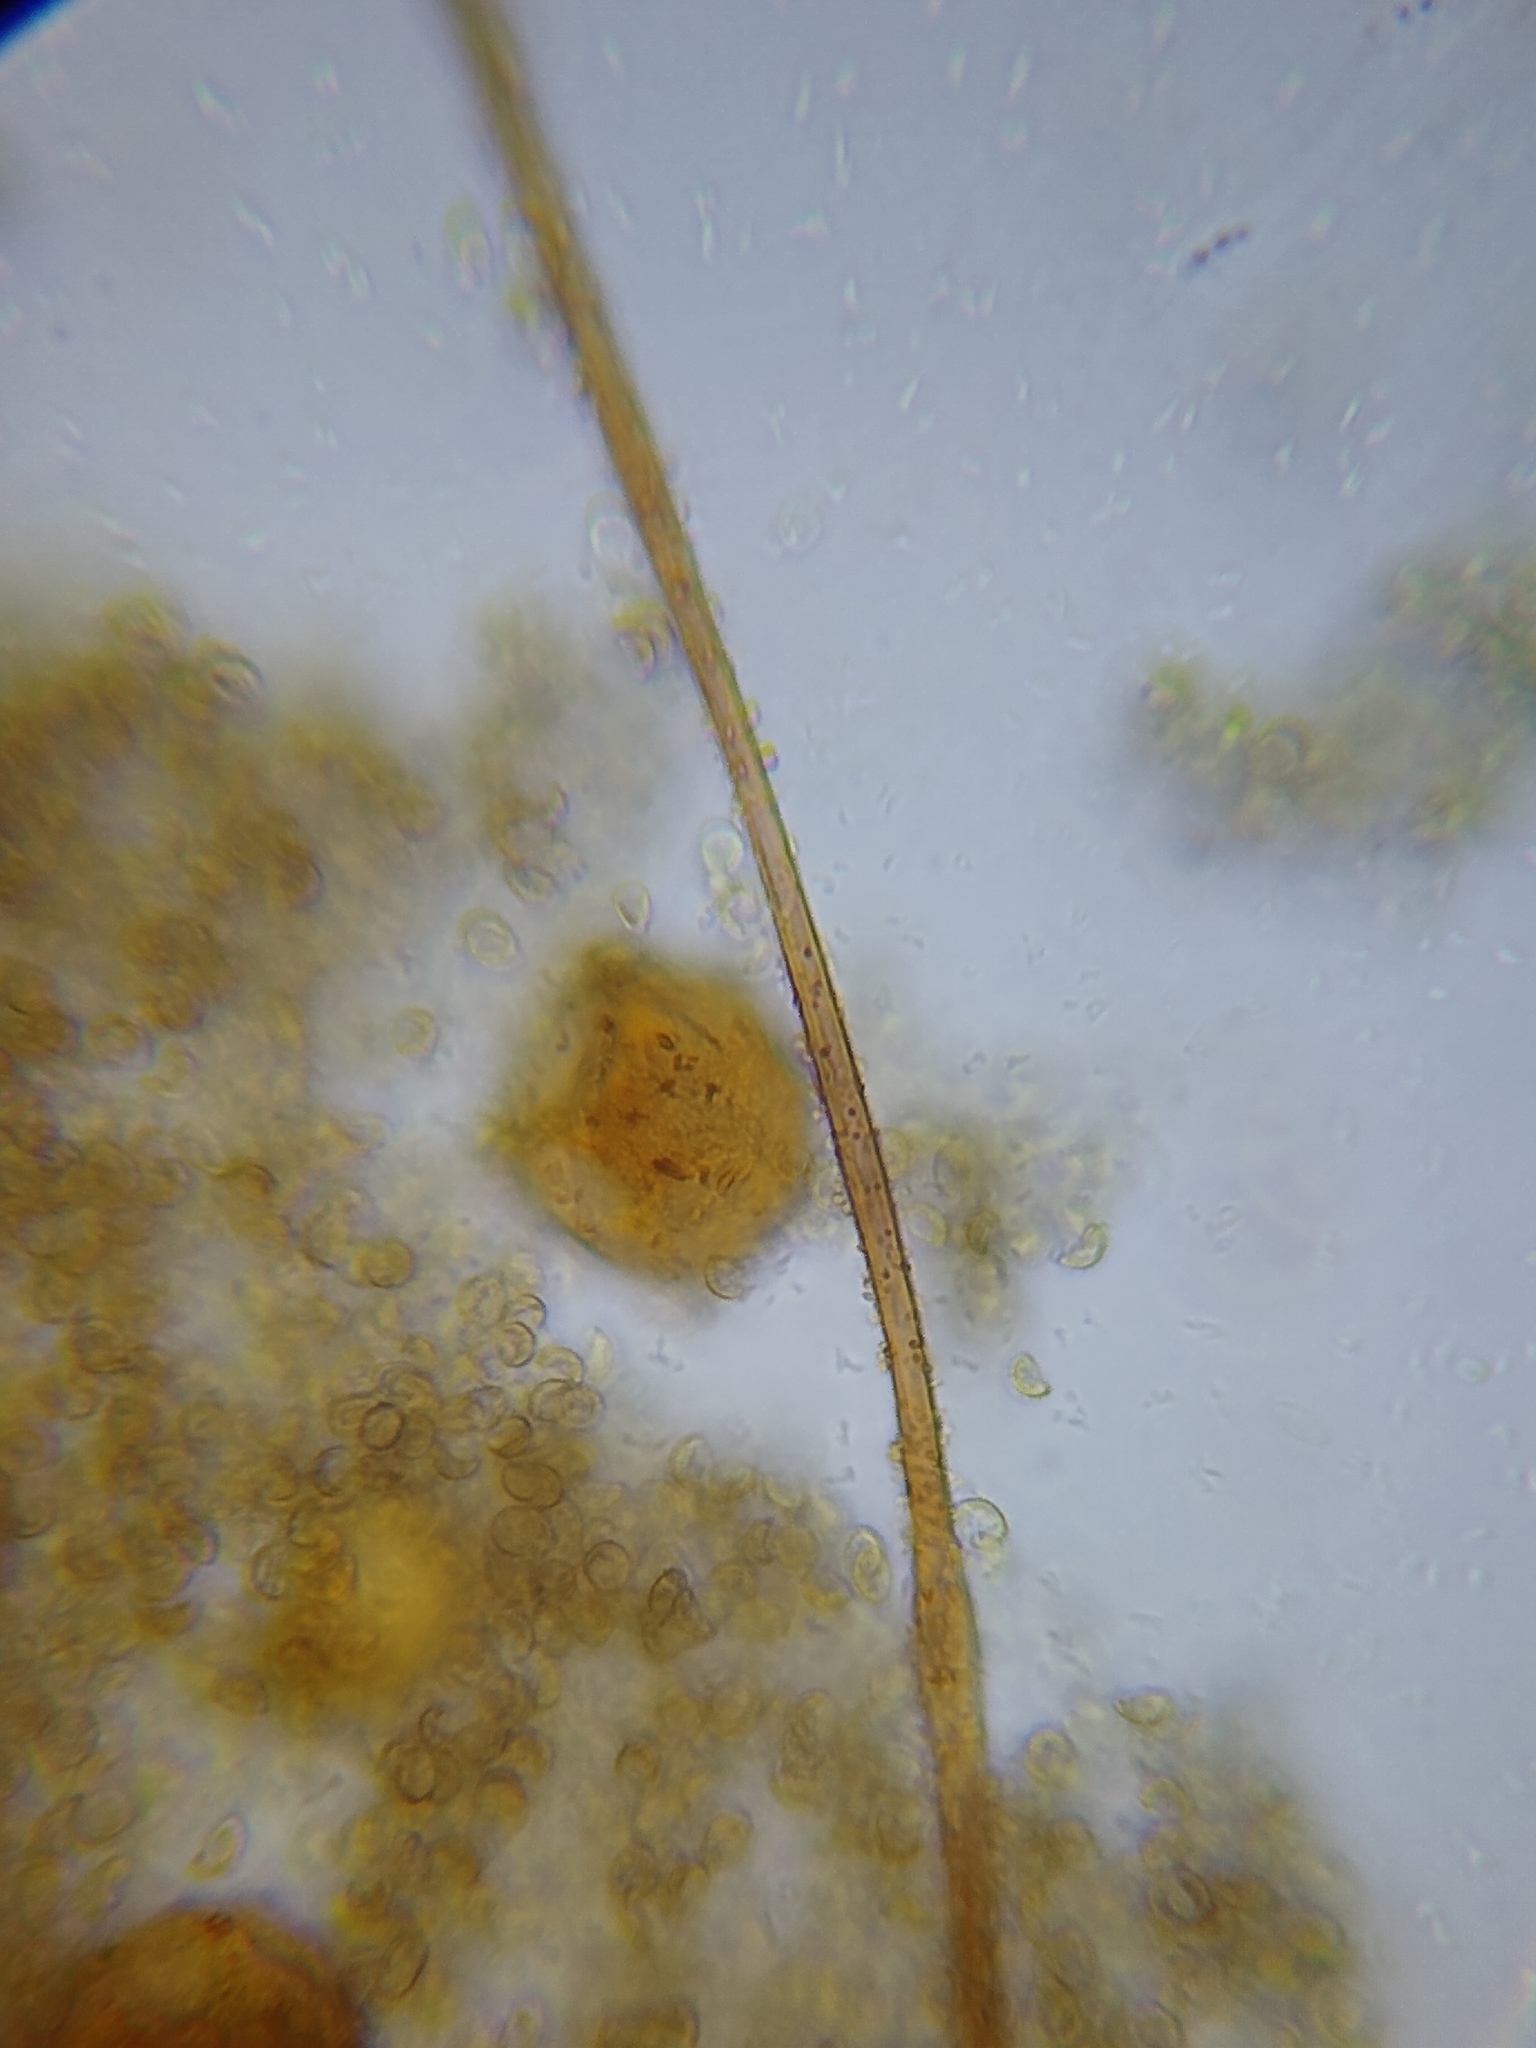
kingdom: Protozoa
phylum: Mycetozoa
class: Myxomycetes
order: Cribrariales
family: Tubiferaceae
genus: Alwisia
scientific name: Alwisia lloydiae
